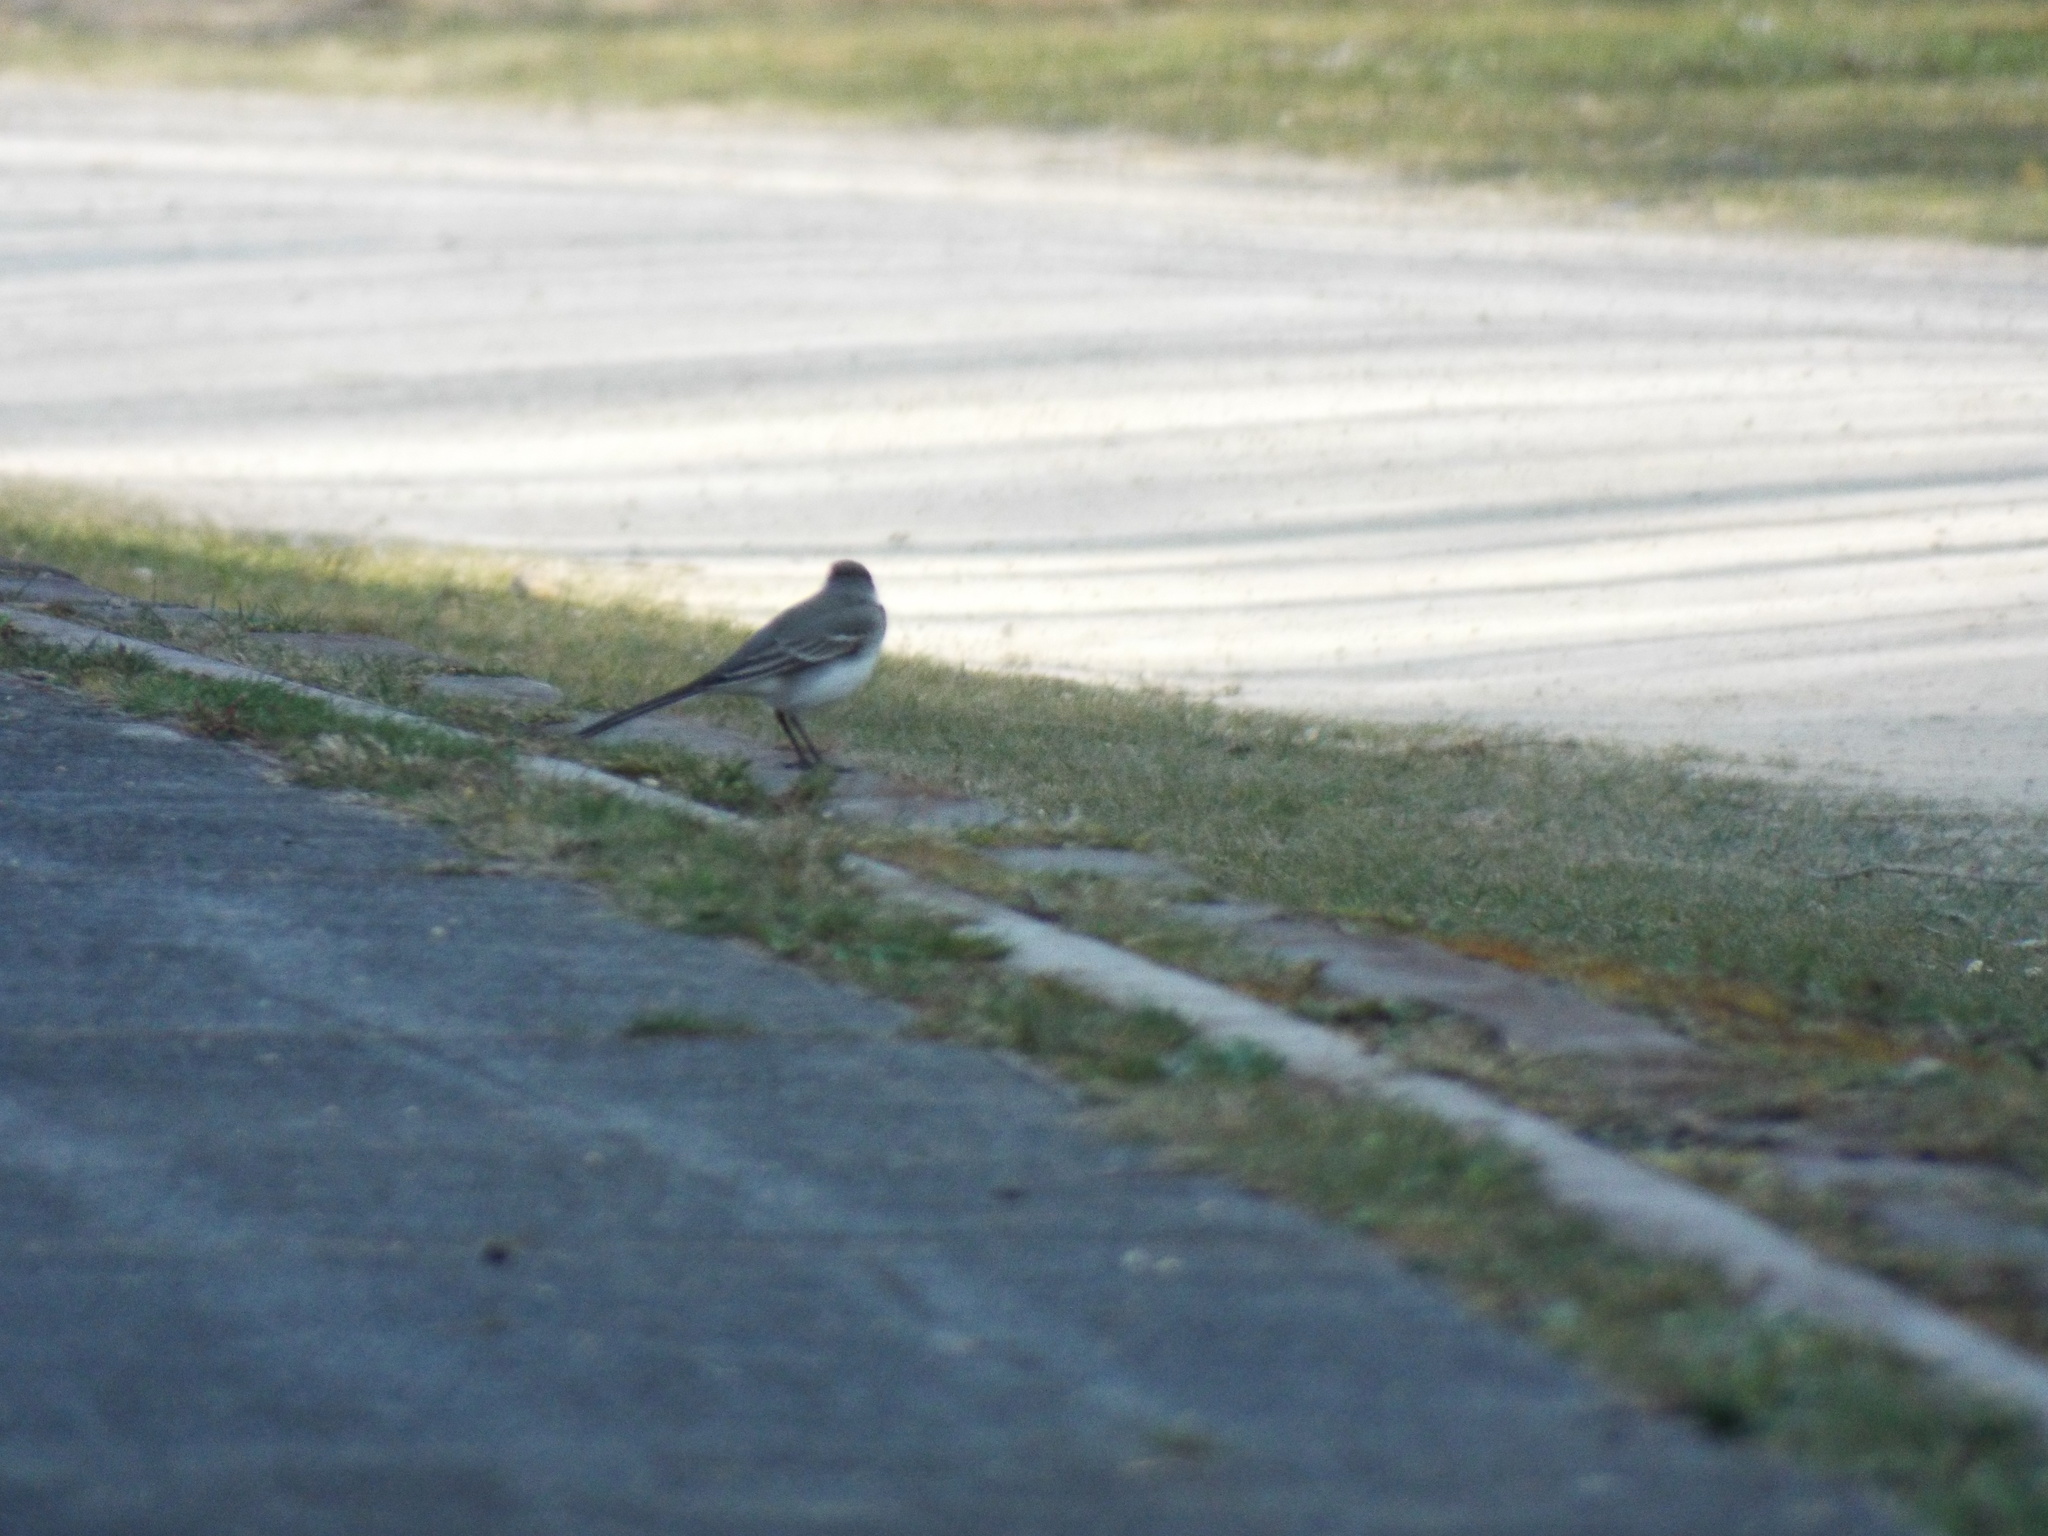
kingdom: Animalia
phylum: Chordata
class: Aves
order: Passeriformes
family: Motacillidae
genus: Motacilla
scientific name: Motacilla alba
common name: White wagtail
